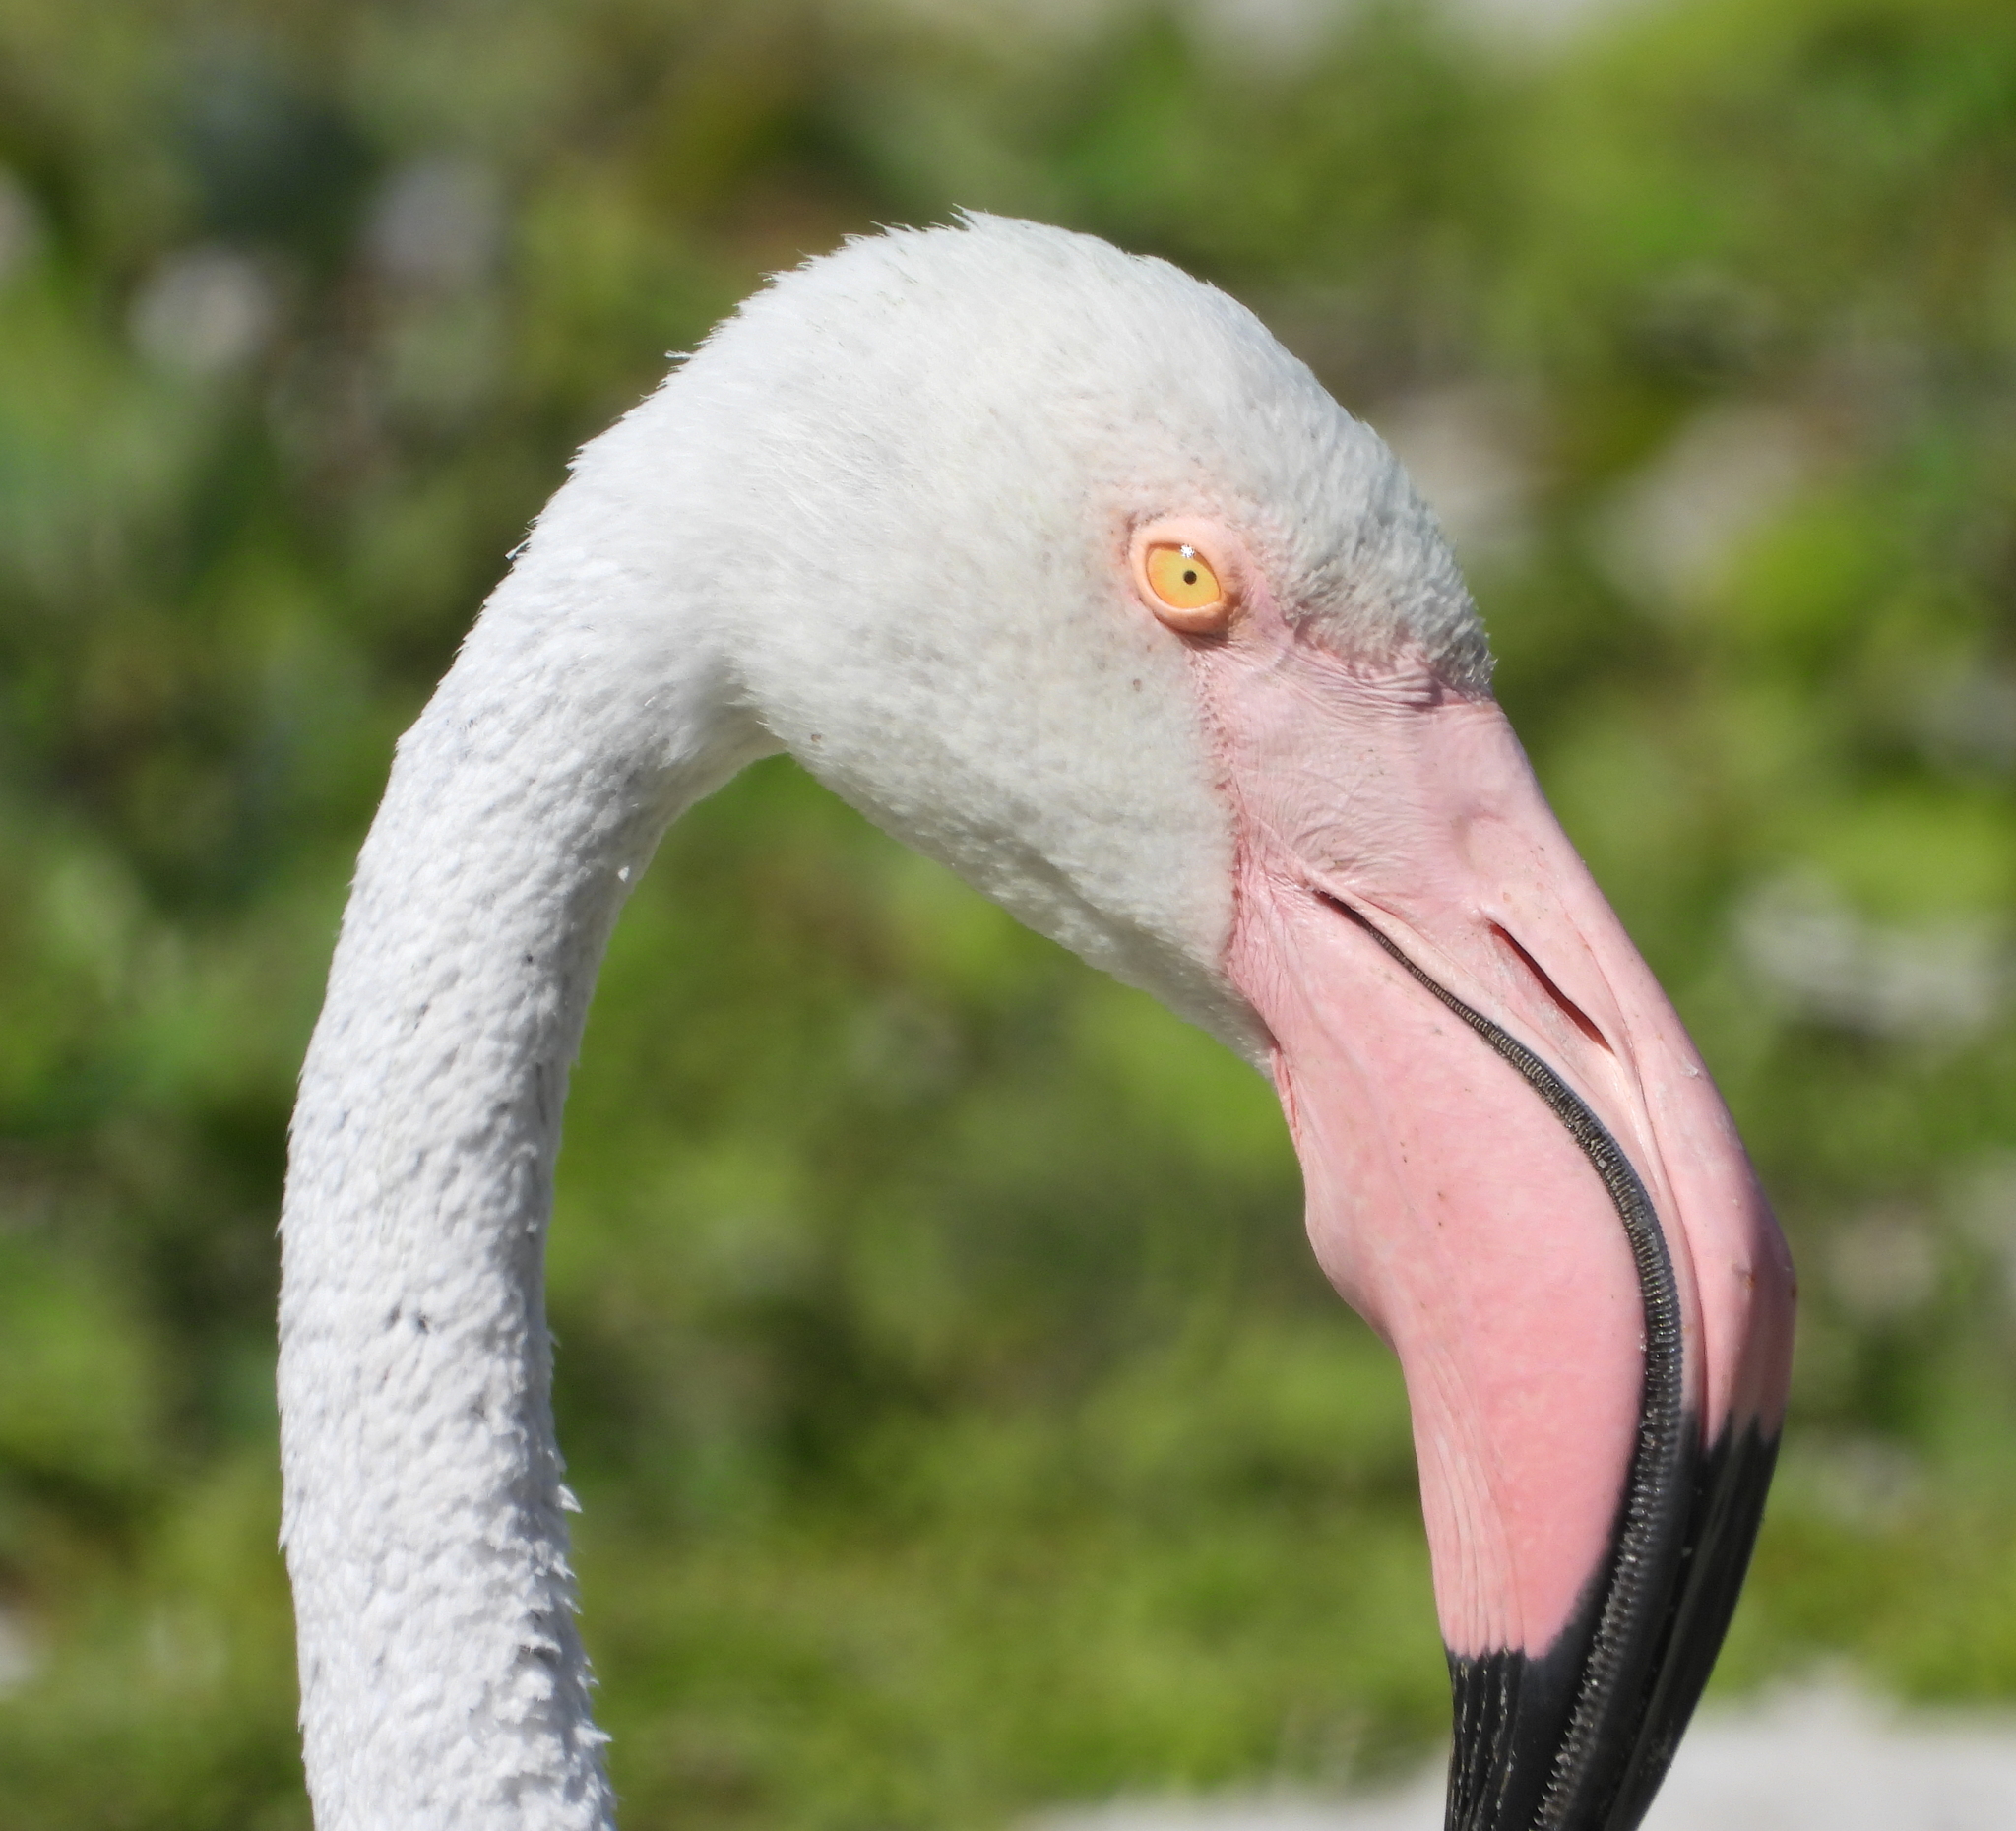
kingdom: Animalia
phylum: Chordata
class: Aves
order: Phoenicopteriformes
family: Phoenicopteridae
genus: Phoenicopterus
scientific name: Phoenicopterus roseus
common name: Greater flamingo
